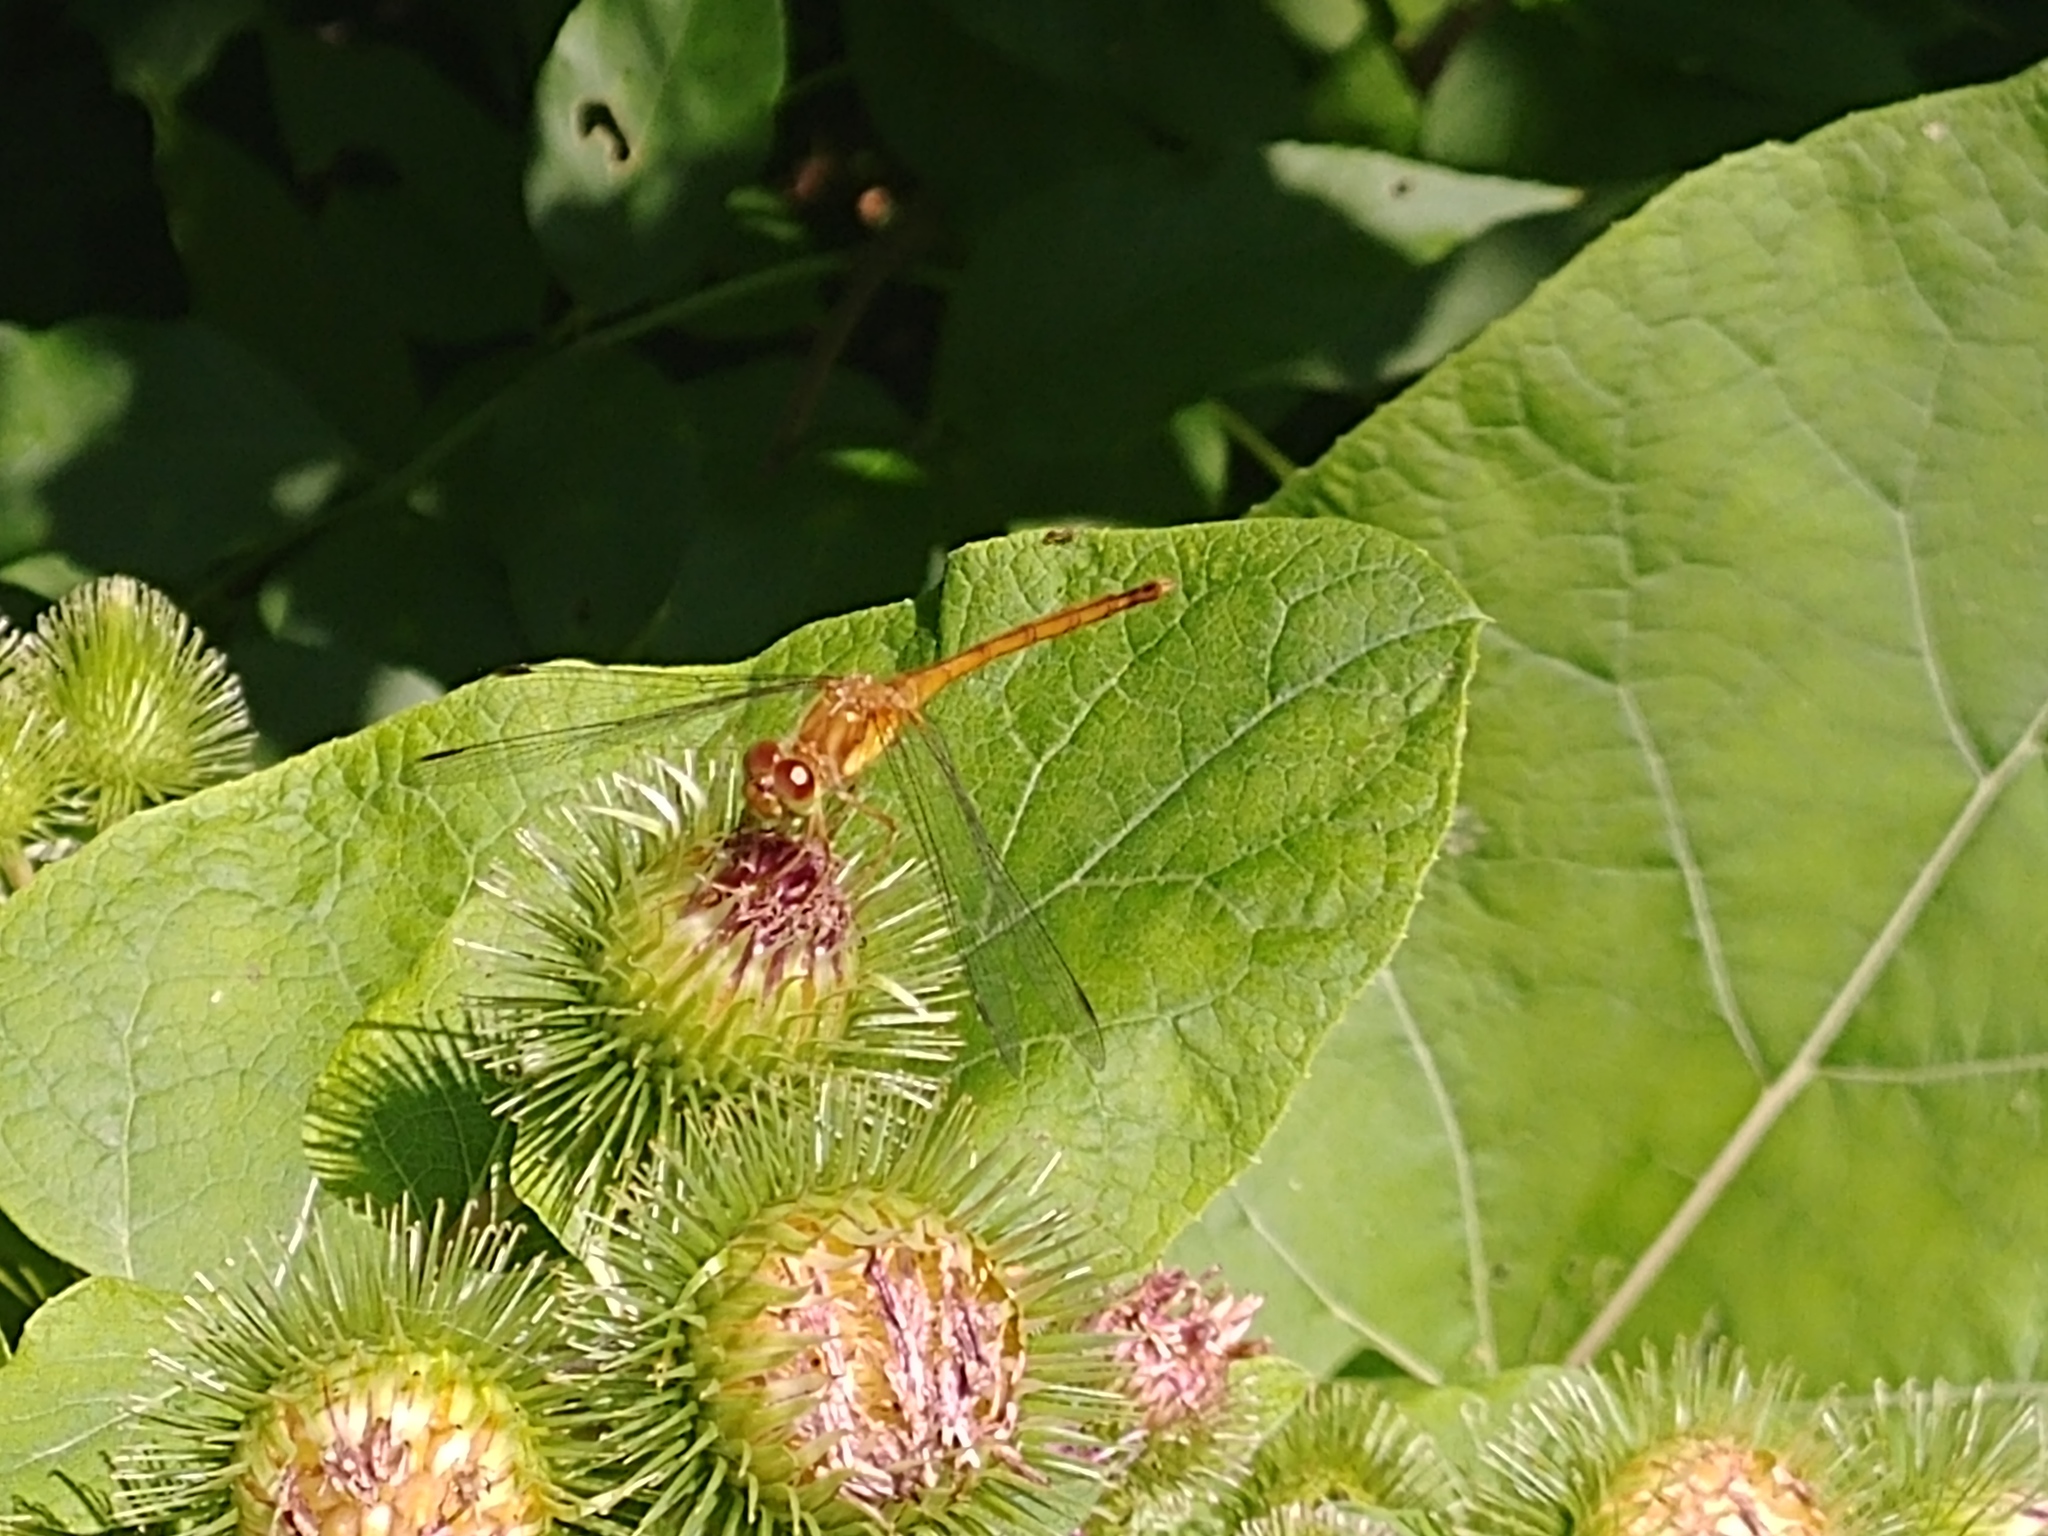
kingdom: Animalia
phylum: Arthropoda
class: Insecta
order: Odonata
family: Libellulidae
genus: Sympetrum
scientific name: Sympetrum vicinum
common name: Autumn meadowhawk
